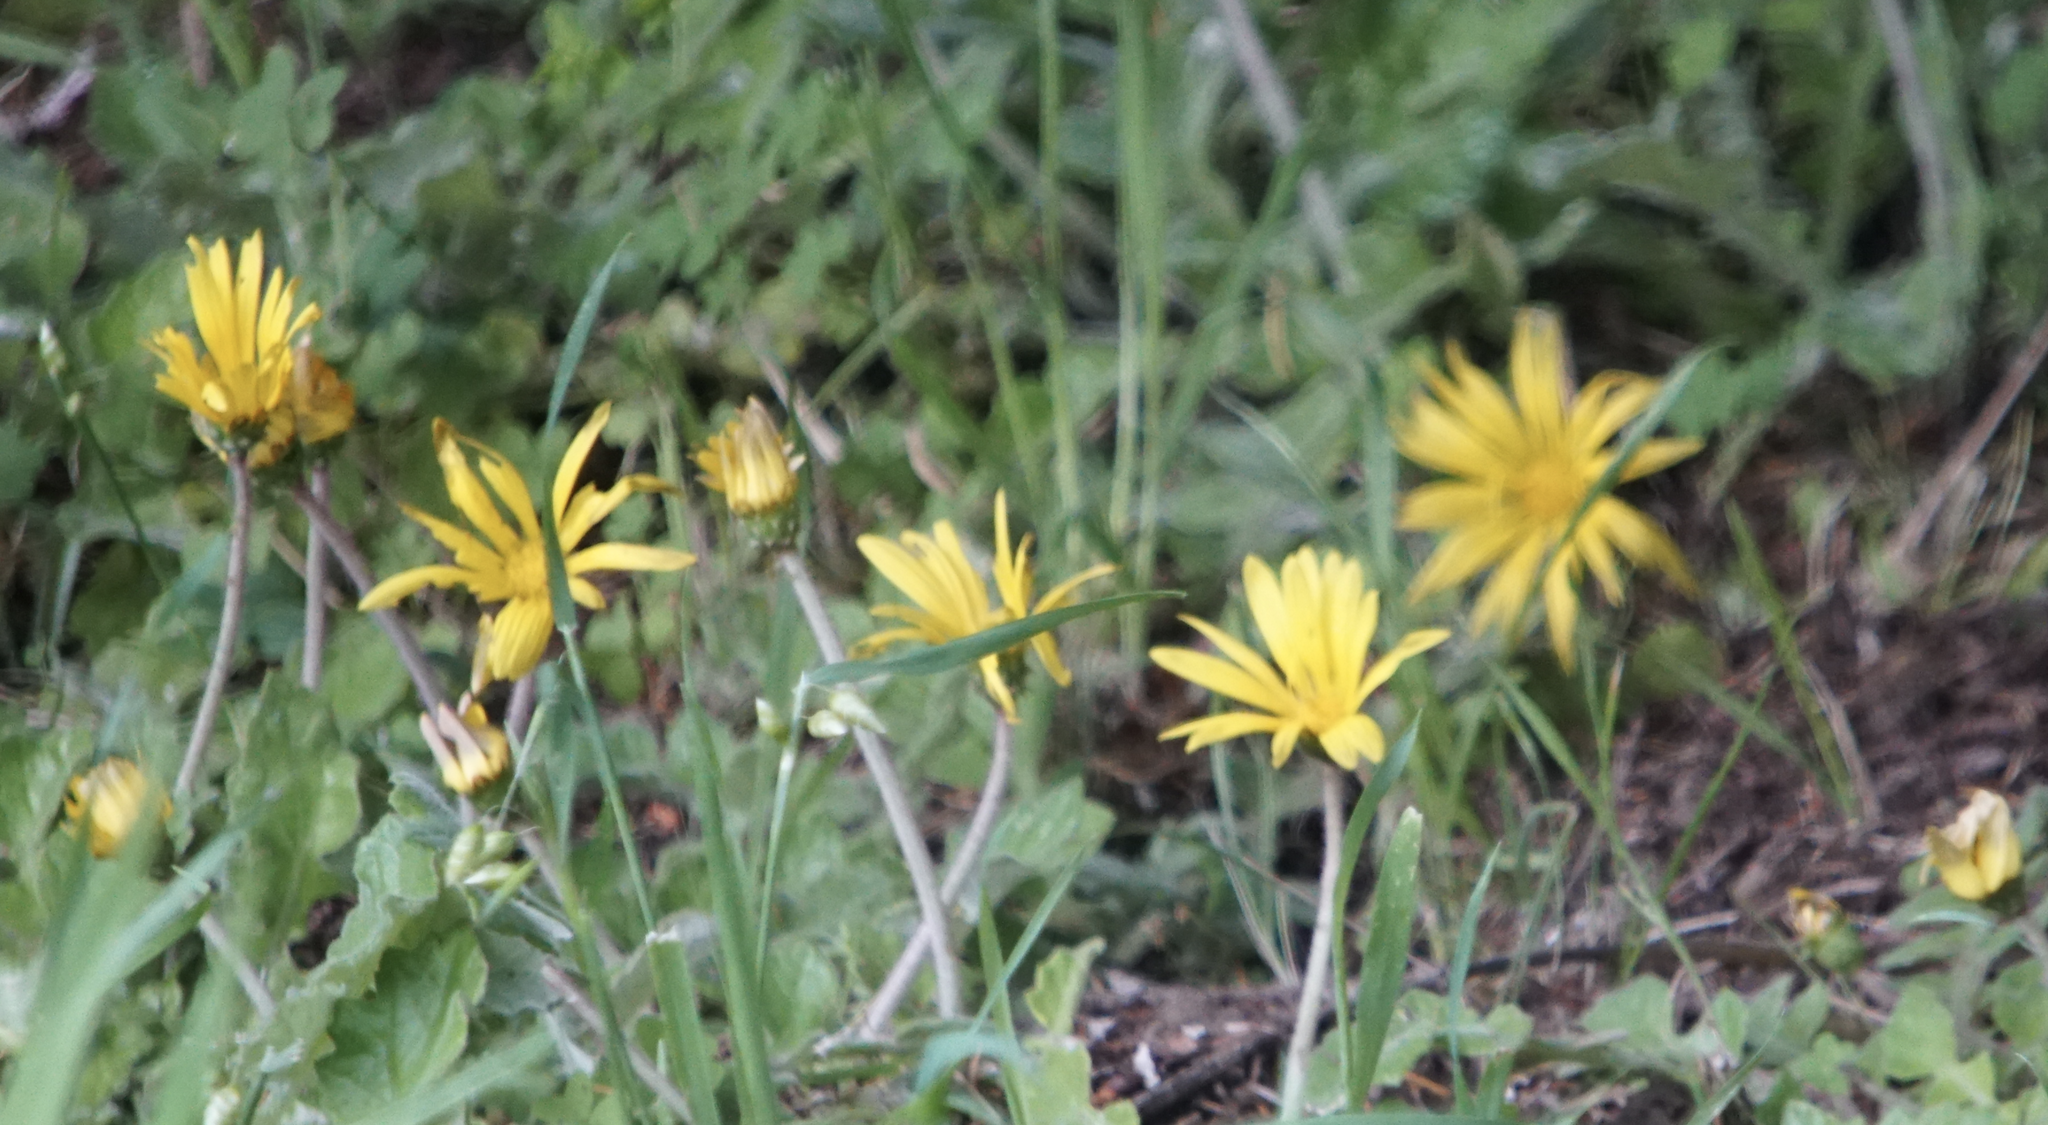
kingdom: Plantae
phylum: Tracheophyta
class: Magnoliopsida
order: Asterales
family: Asteraceae
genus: Arctotheca
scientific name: Arctotheca prostrata
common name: Capeweed
